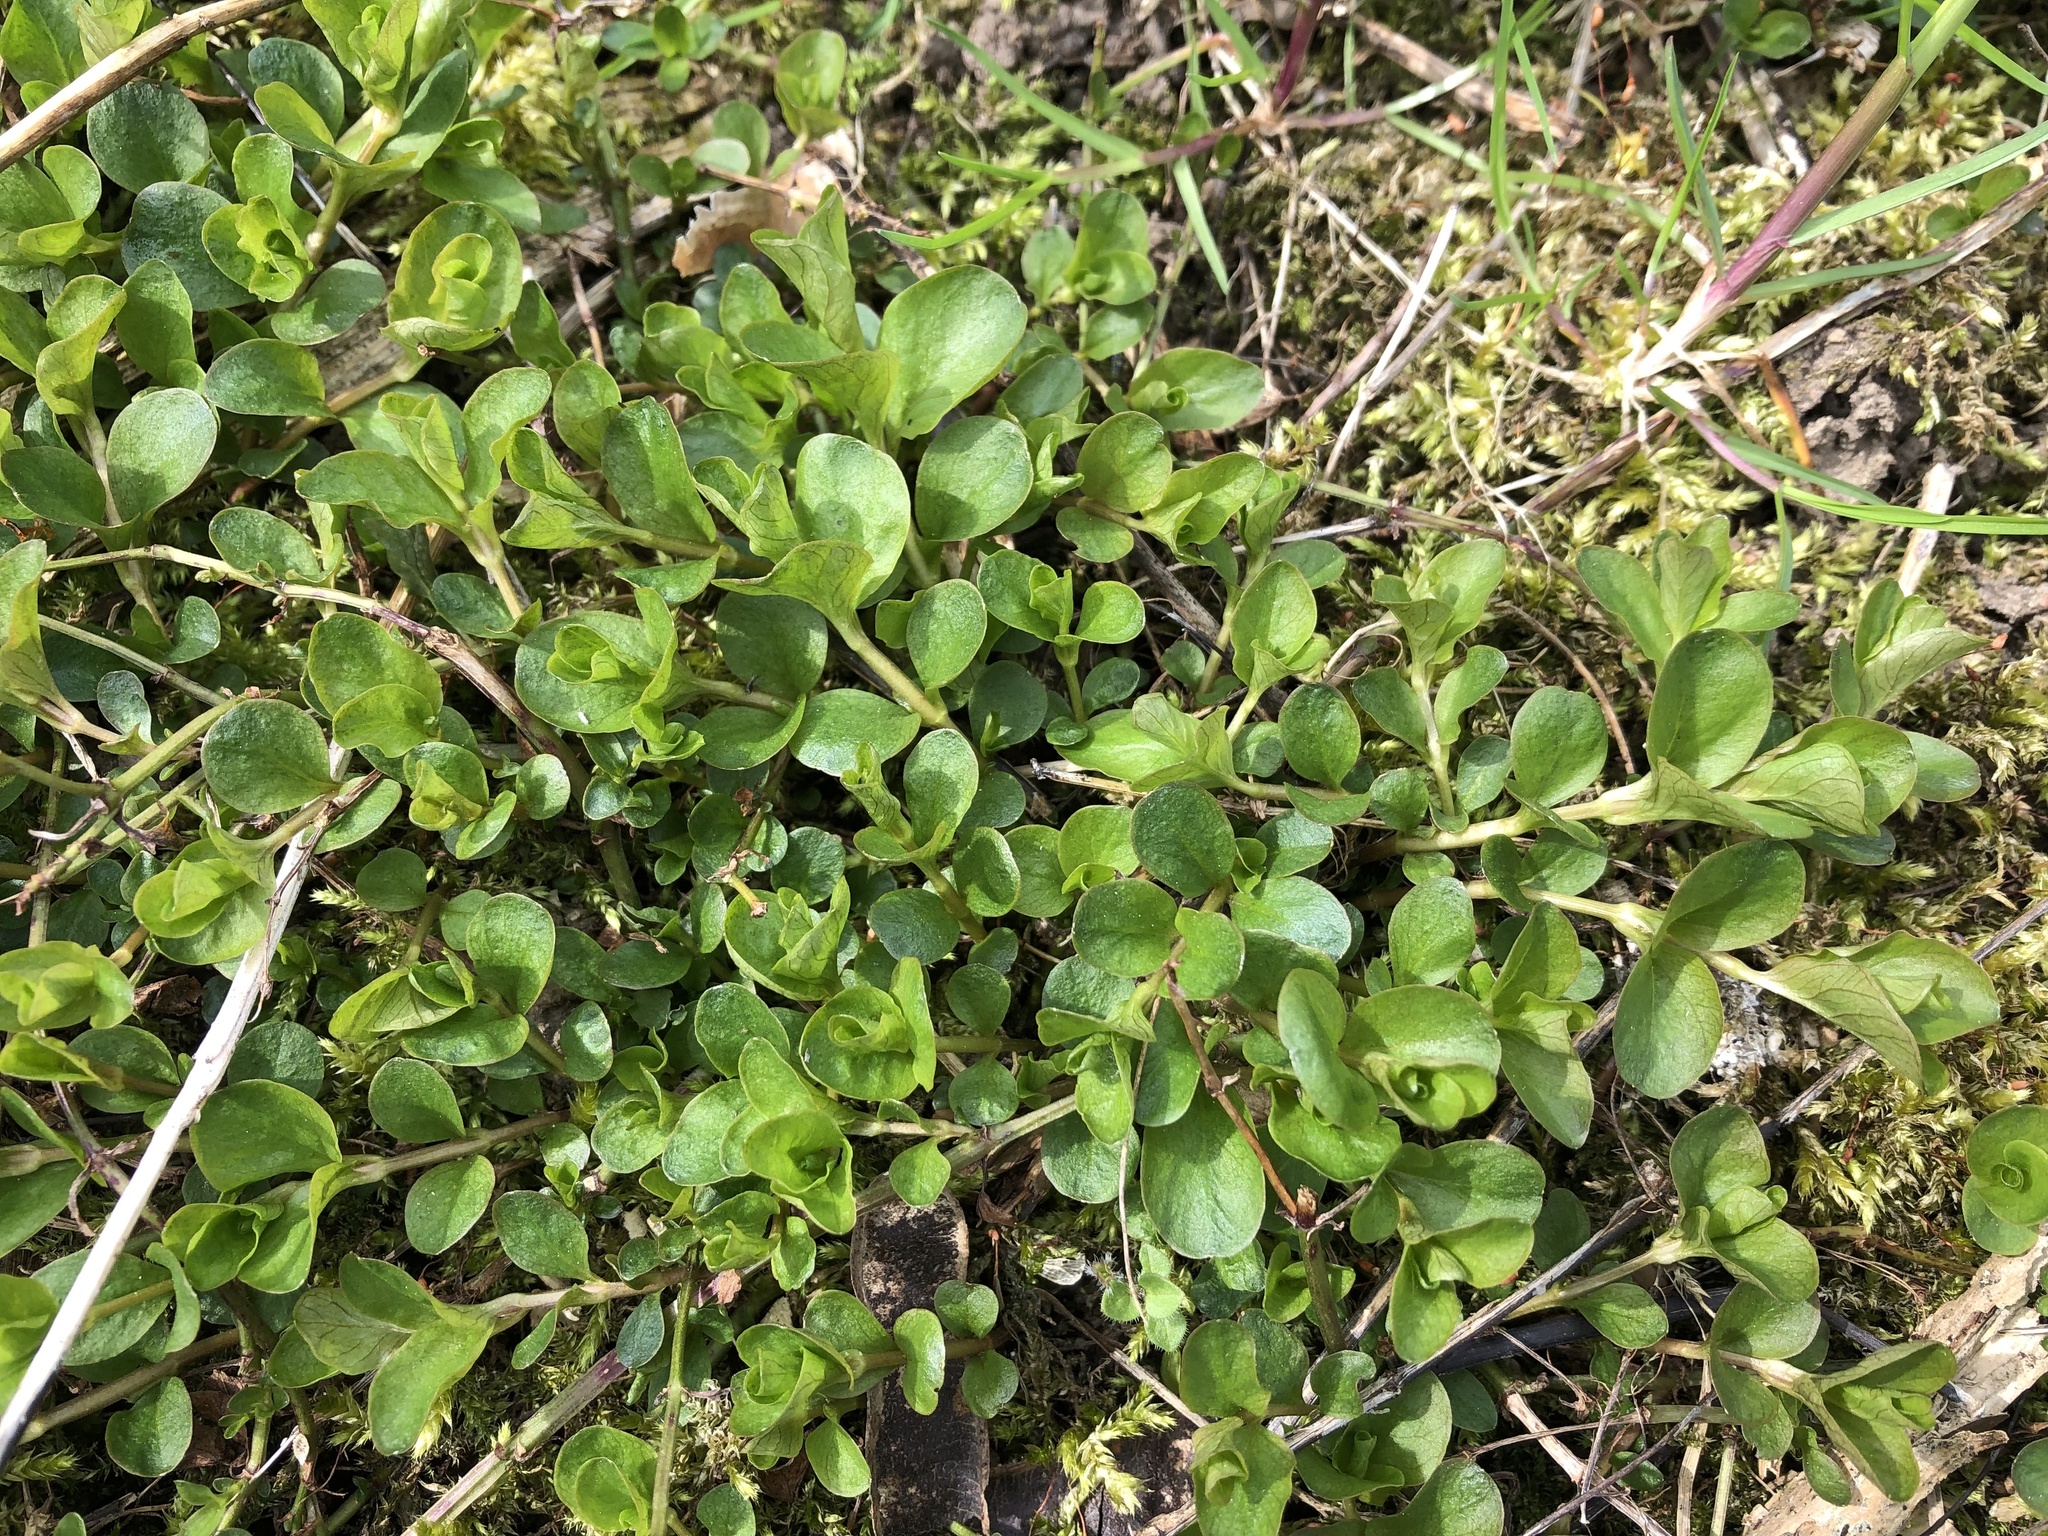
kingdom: Plantae
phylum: Tracheophyta
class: Magnoliopsida
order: Ericales
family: Primulaceae
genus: Lysimachia
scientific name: Lysimachia nummularia
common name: Moneywort
